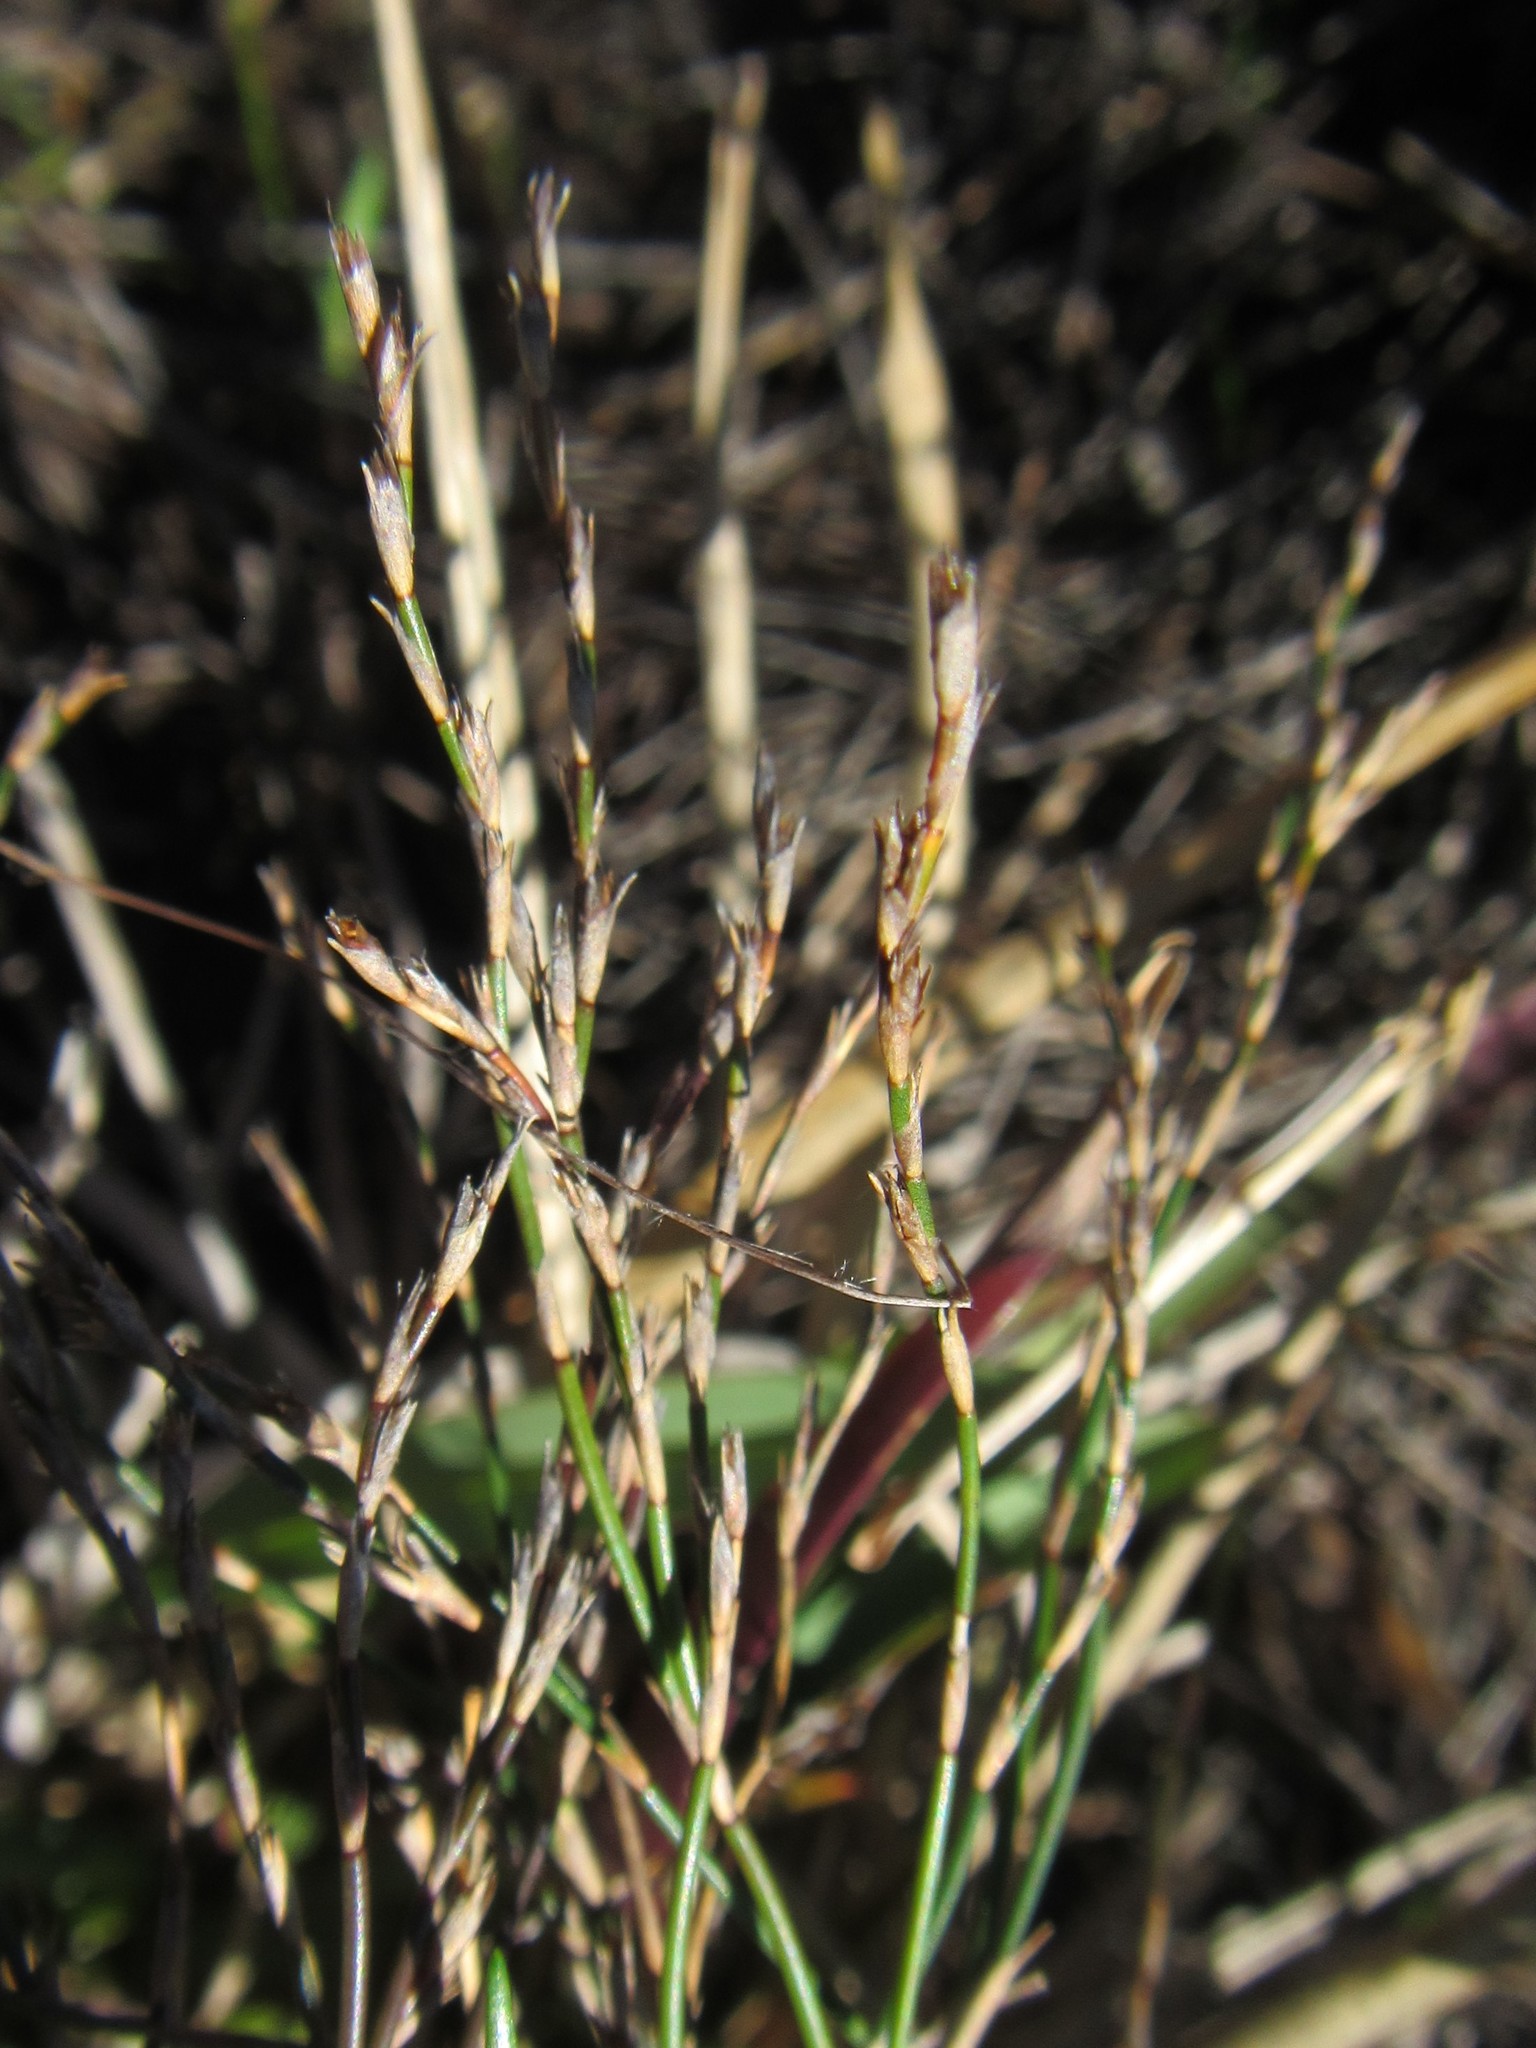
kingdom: Plantae
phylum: Tracheophyta
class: Liliopsida
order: Poales
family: Restionaceae
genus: Restio
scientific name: Restio femineus
